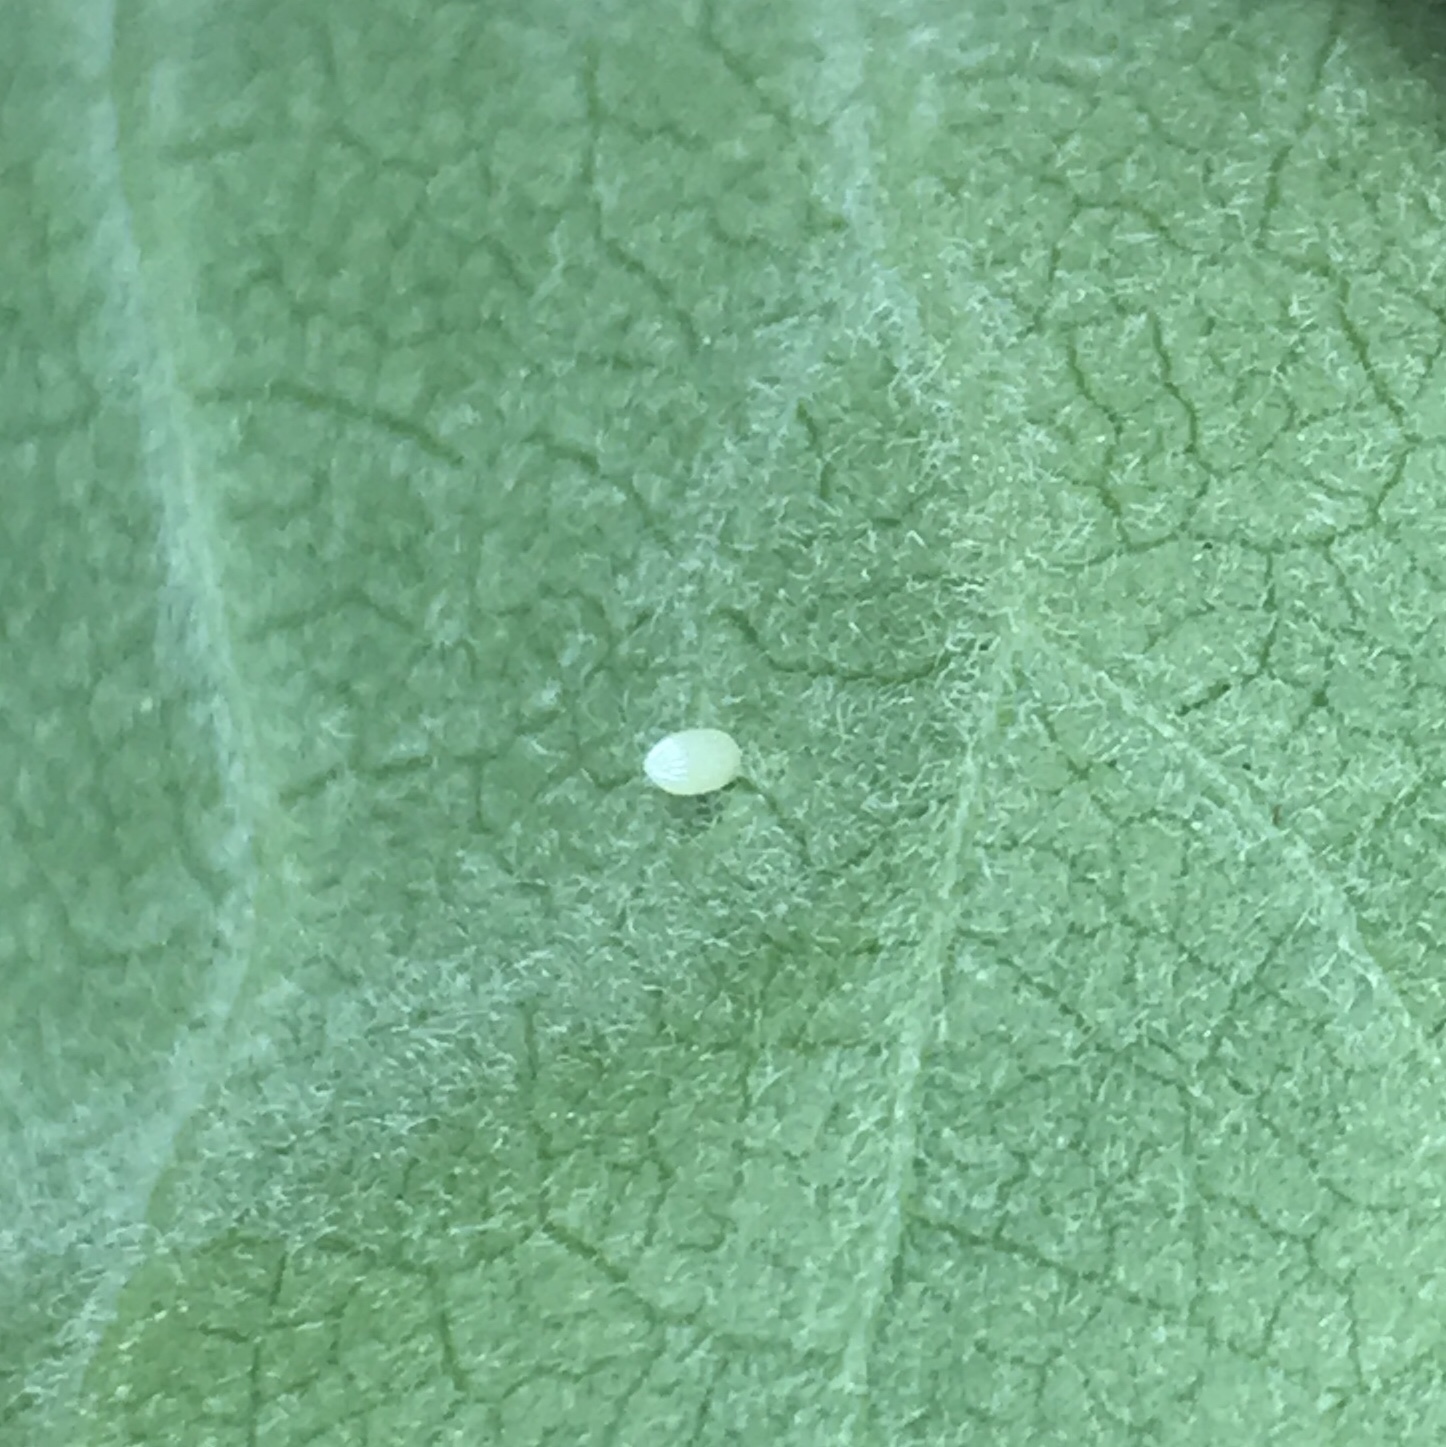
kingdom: Animalia
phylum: Arthropoda
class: Insecta
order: Lepidoptera
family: Nymphalidae
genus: Danaus
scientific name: Danaus plexippus
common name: Monarch
